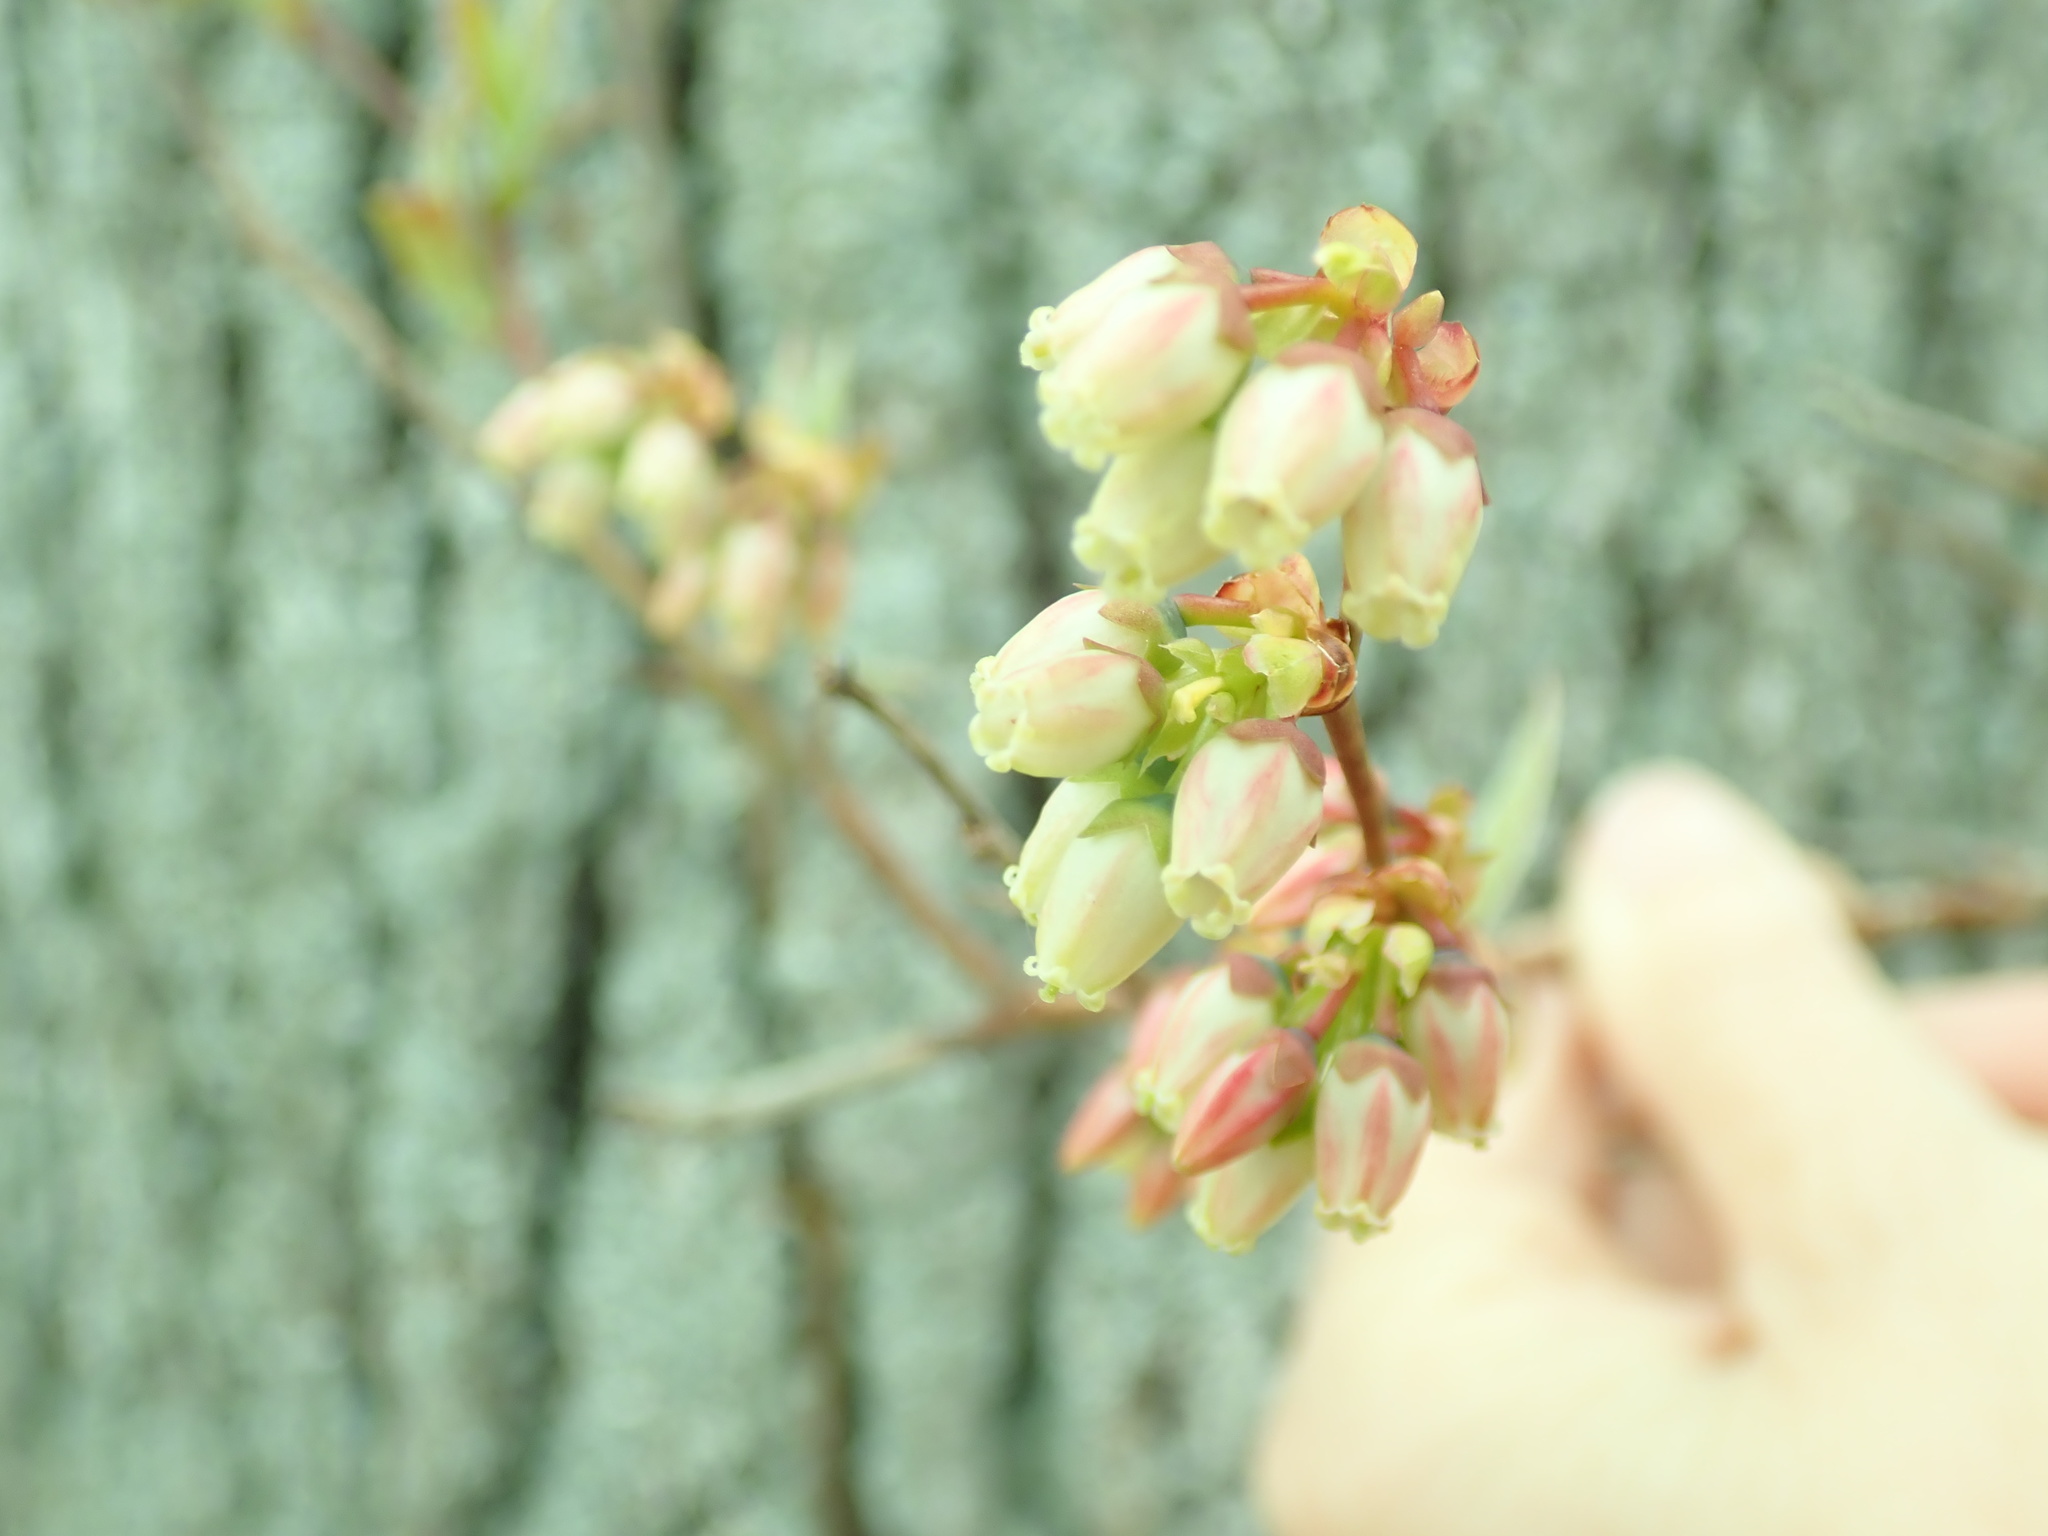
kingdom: Plantae
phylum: Tracheophyta
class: Magnoliopsida
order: Ericales
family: Ericaceae
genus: Vaccinium
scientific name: Vaccinium corymbosum
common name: Blueberry
